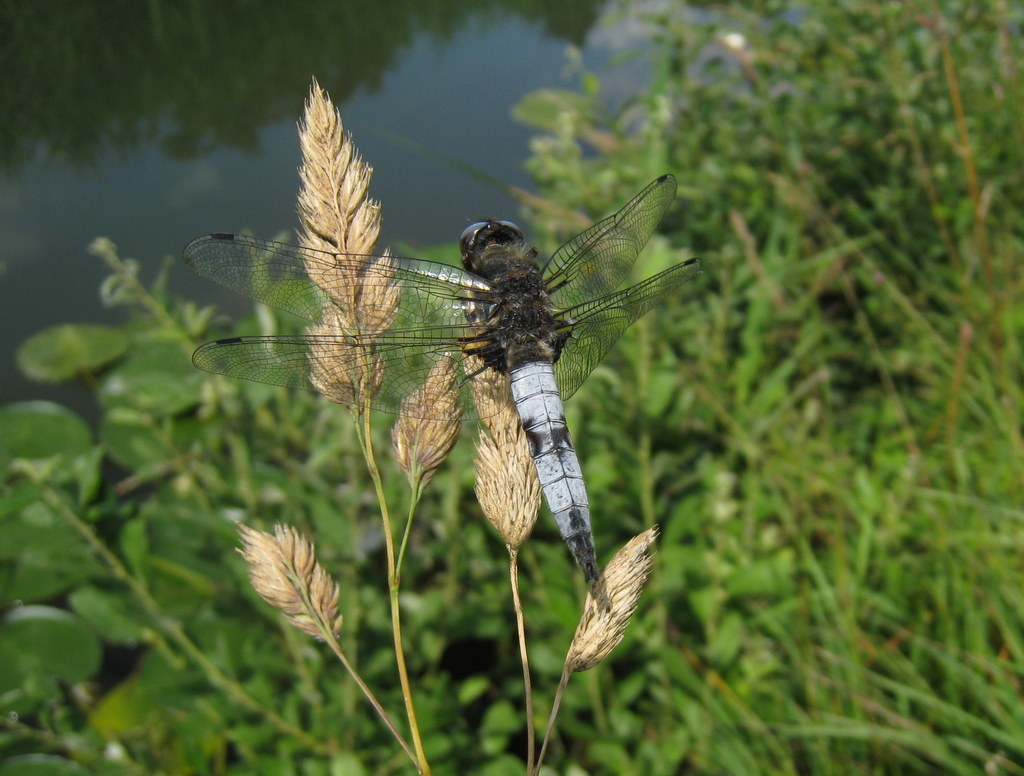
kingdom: Animalia
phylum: Arthropoda
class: Insecta
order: Odonata
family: Libellulidae
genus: Libellula
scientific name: Libellula fulva
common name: Blue chaser
